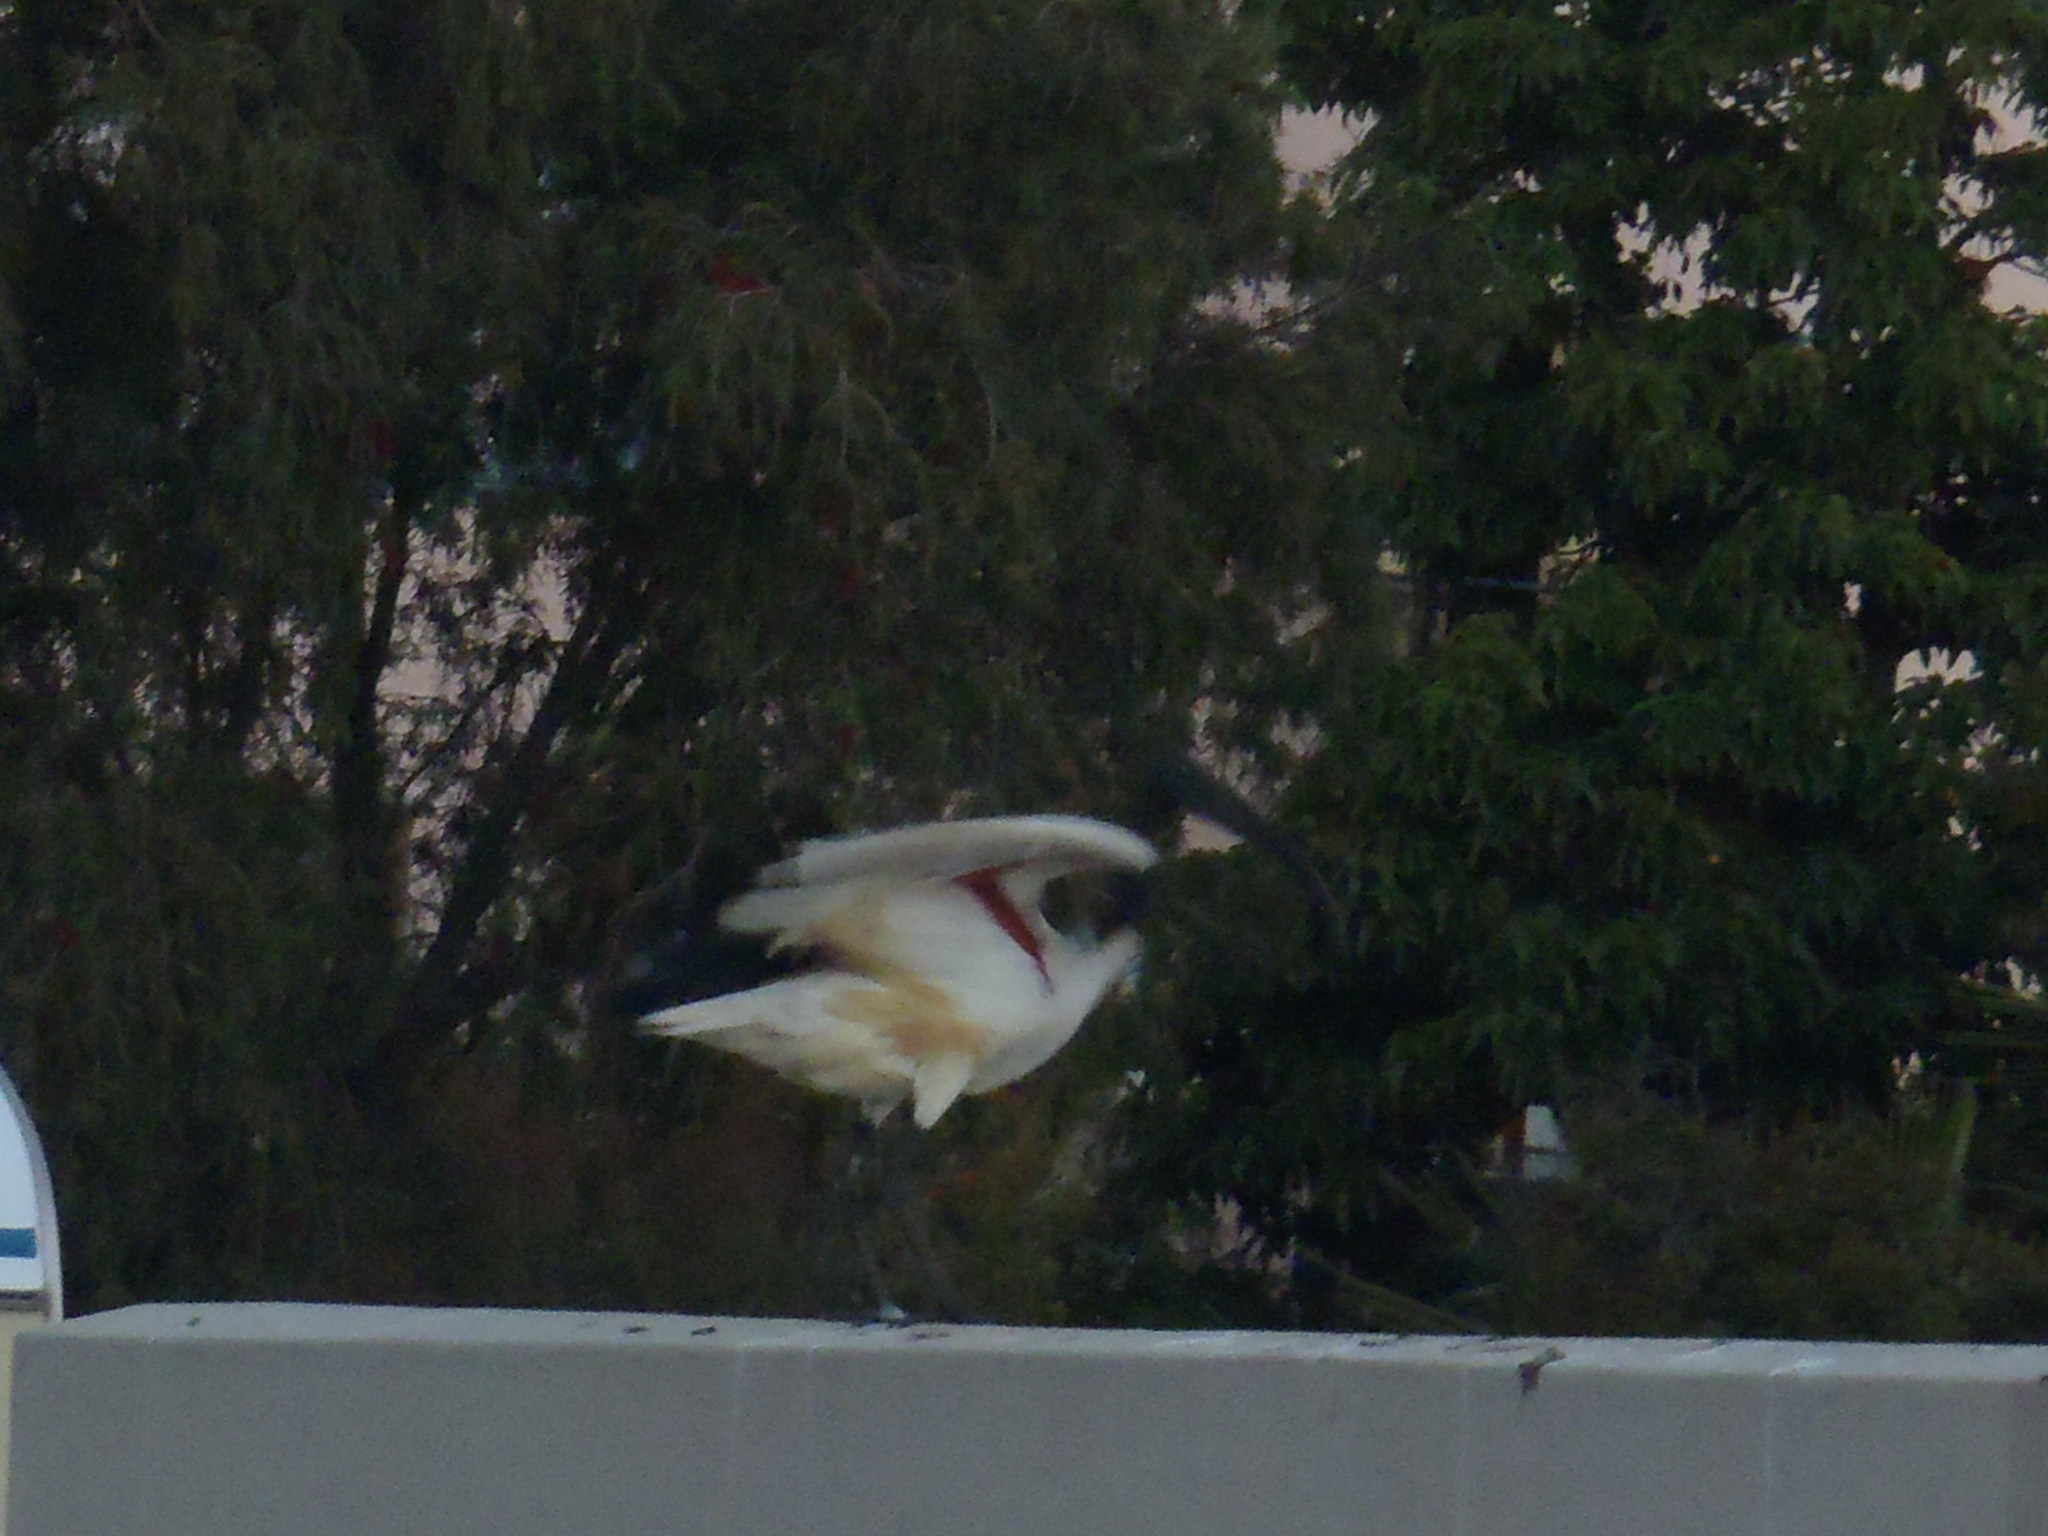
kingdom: Animalia
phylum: Chordata
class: Aves
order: Pelecaniformes
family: Threskiornithidae
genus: Threskiornis
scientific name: Threskiornis aethiopicus
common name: Sacred ibis
